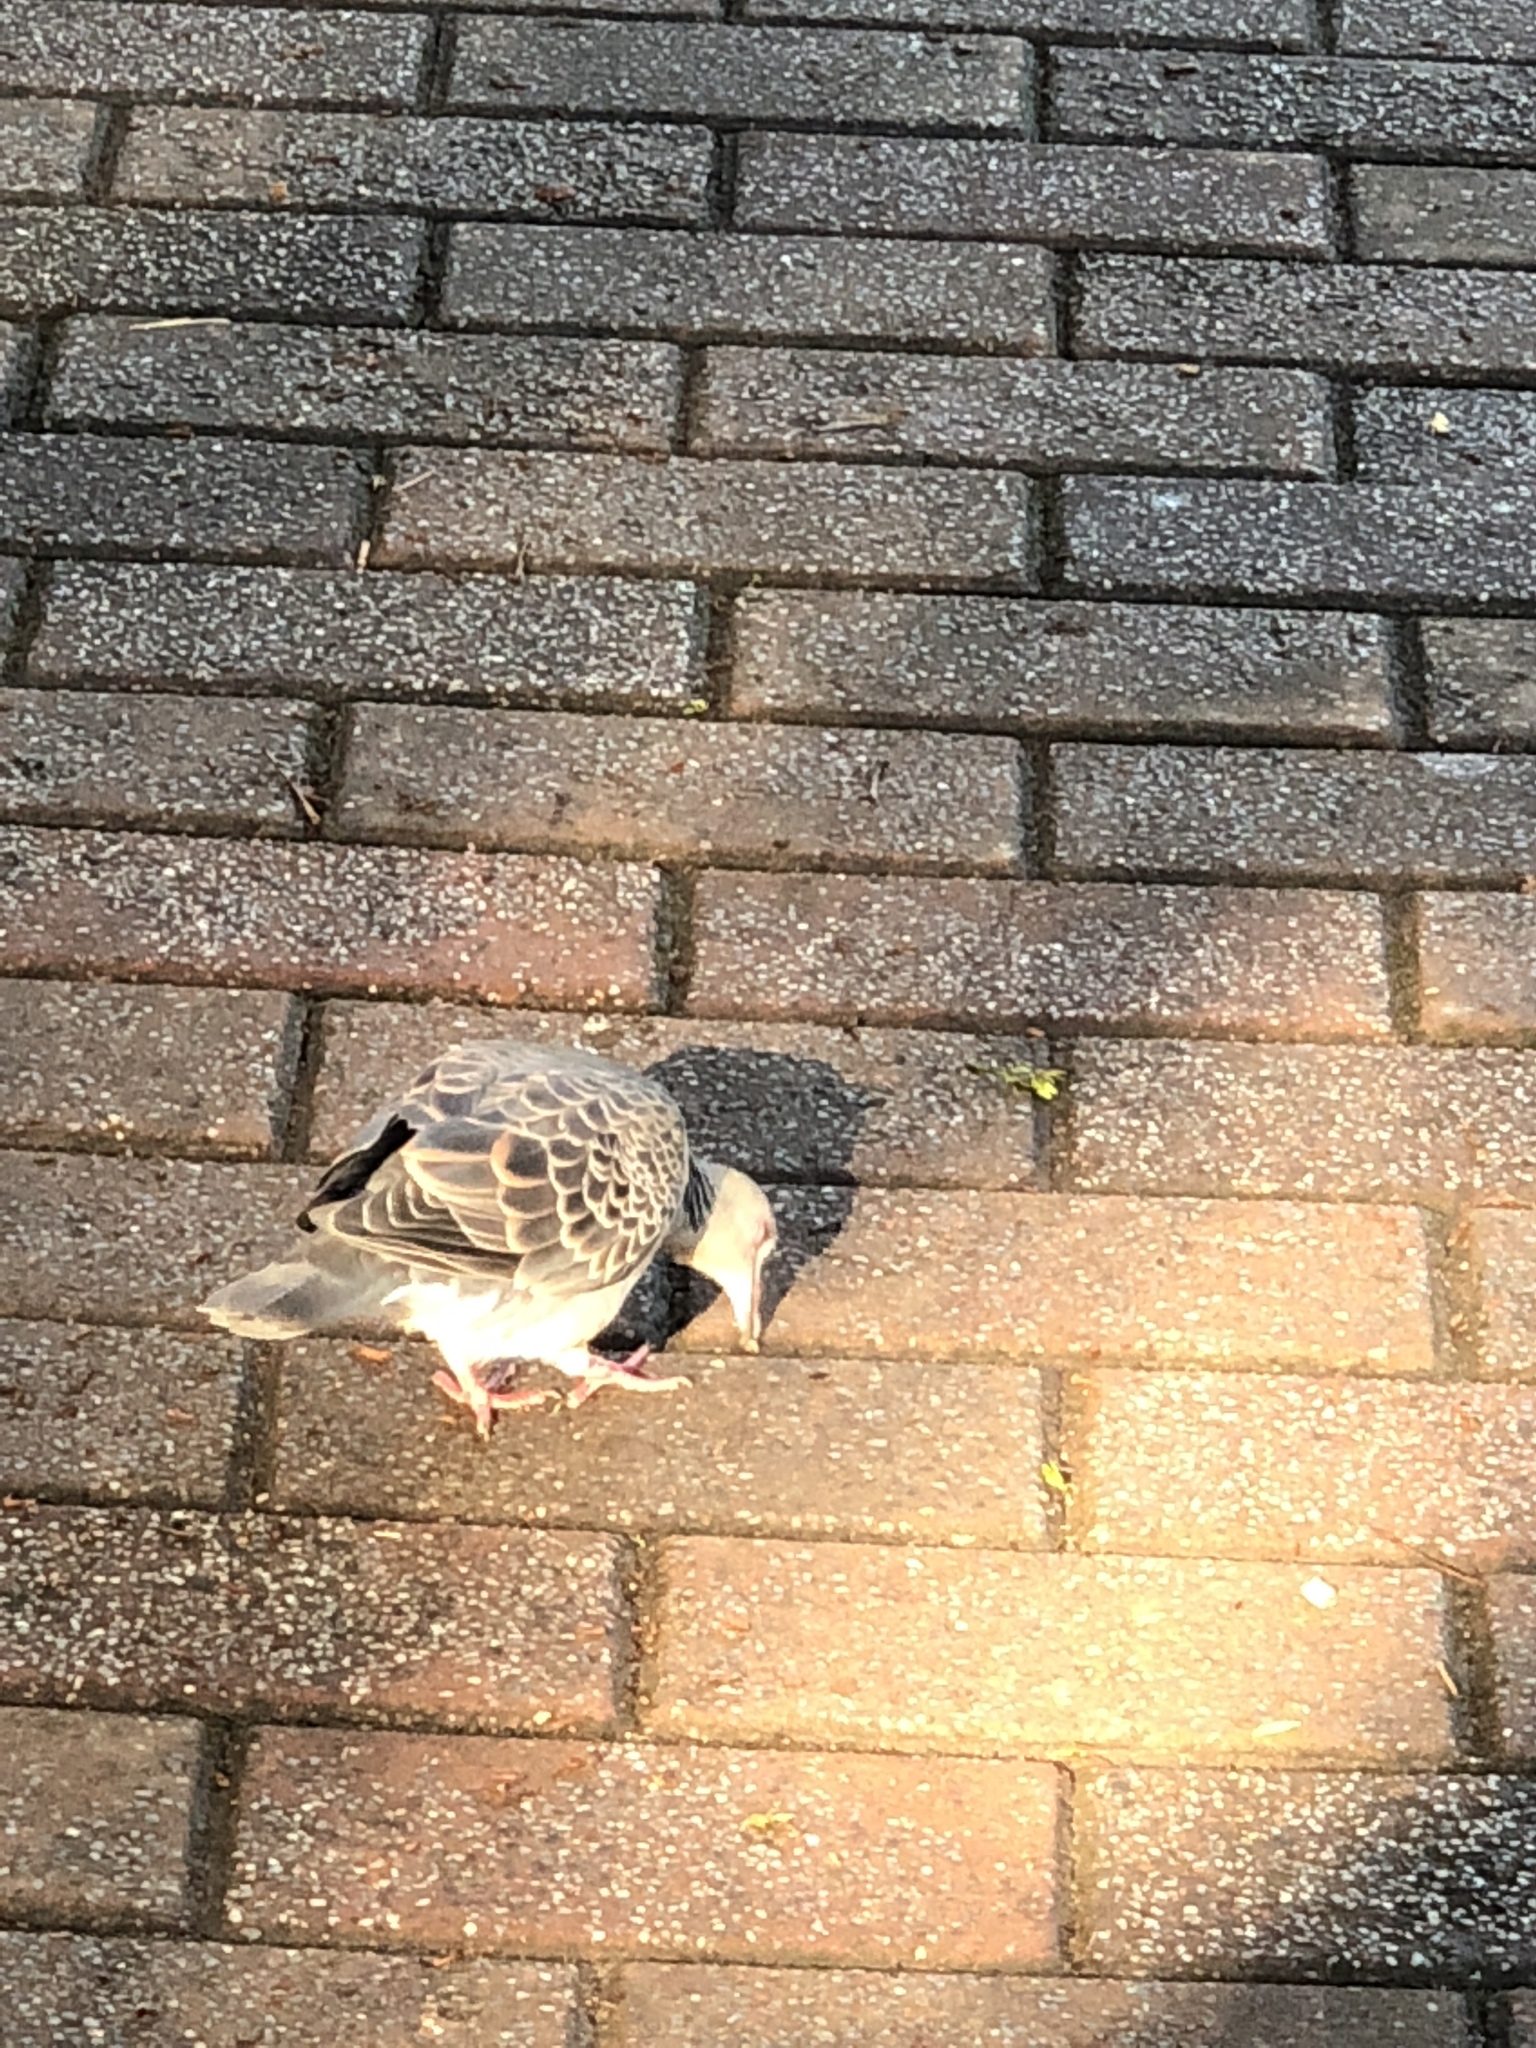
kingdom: Animalia
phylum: Chordata
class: Aves
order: Columbiformes
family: Columbidae
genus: Streptopelia
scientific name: Streptopelia orientalis
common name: Oriental turtle dove
